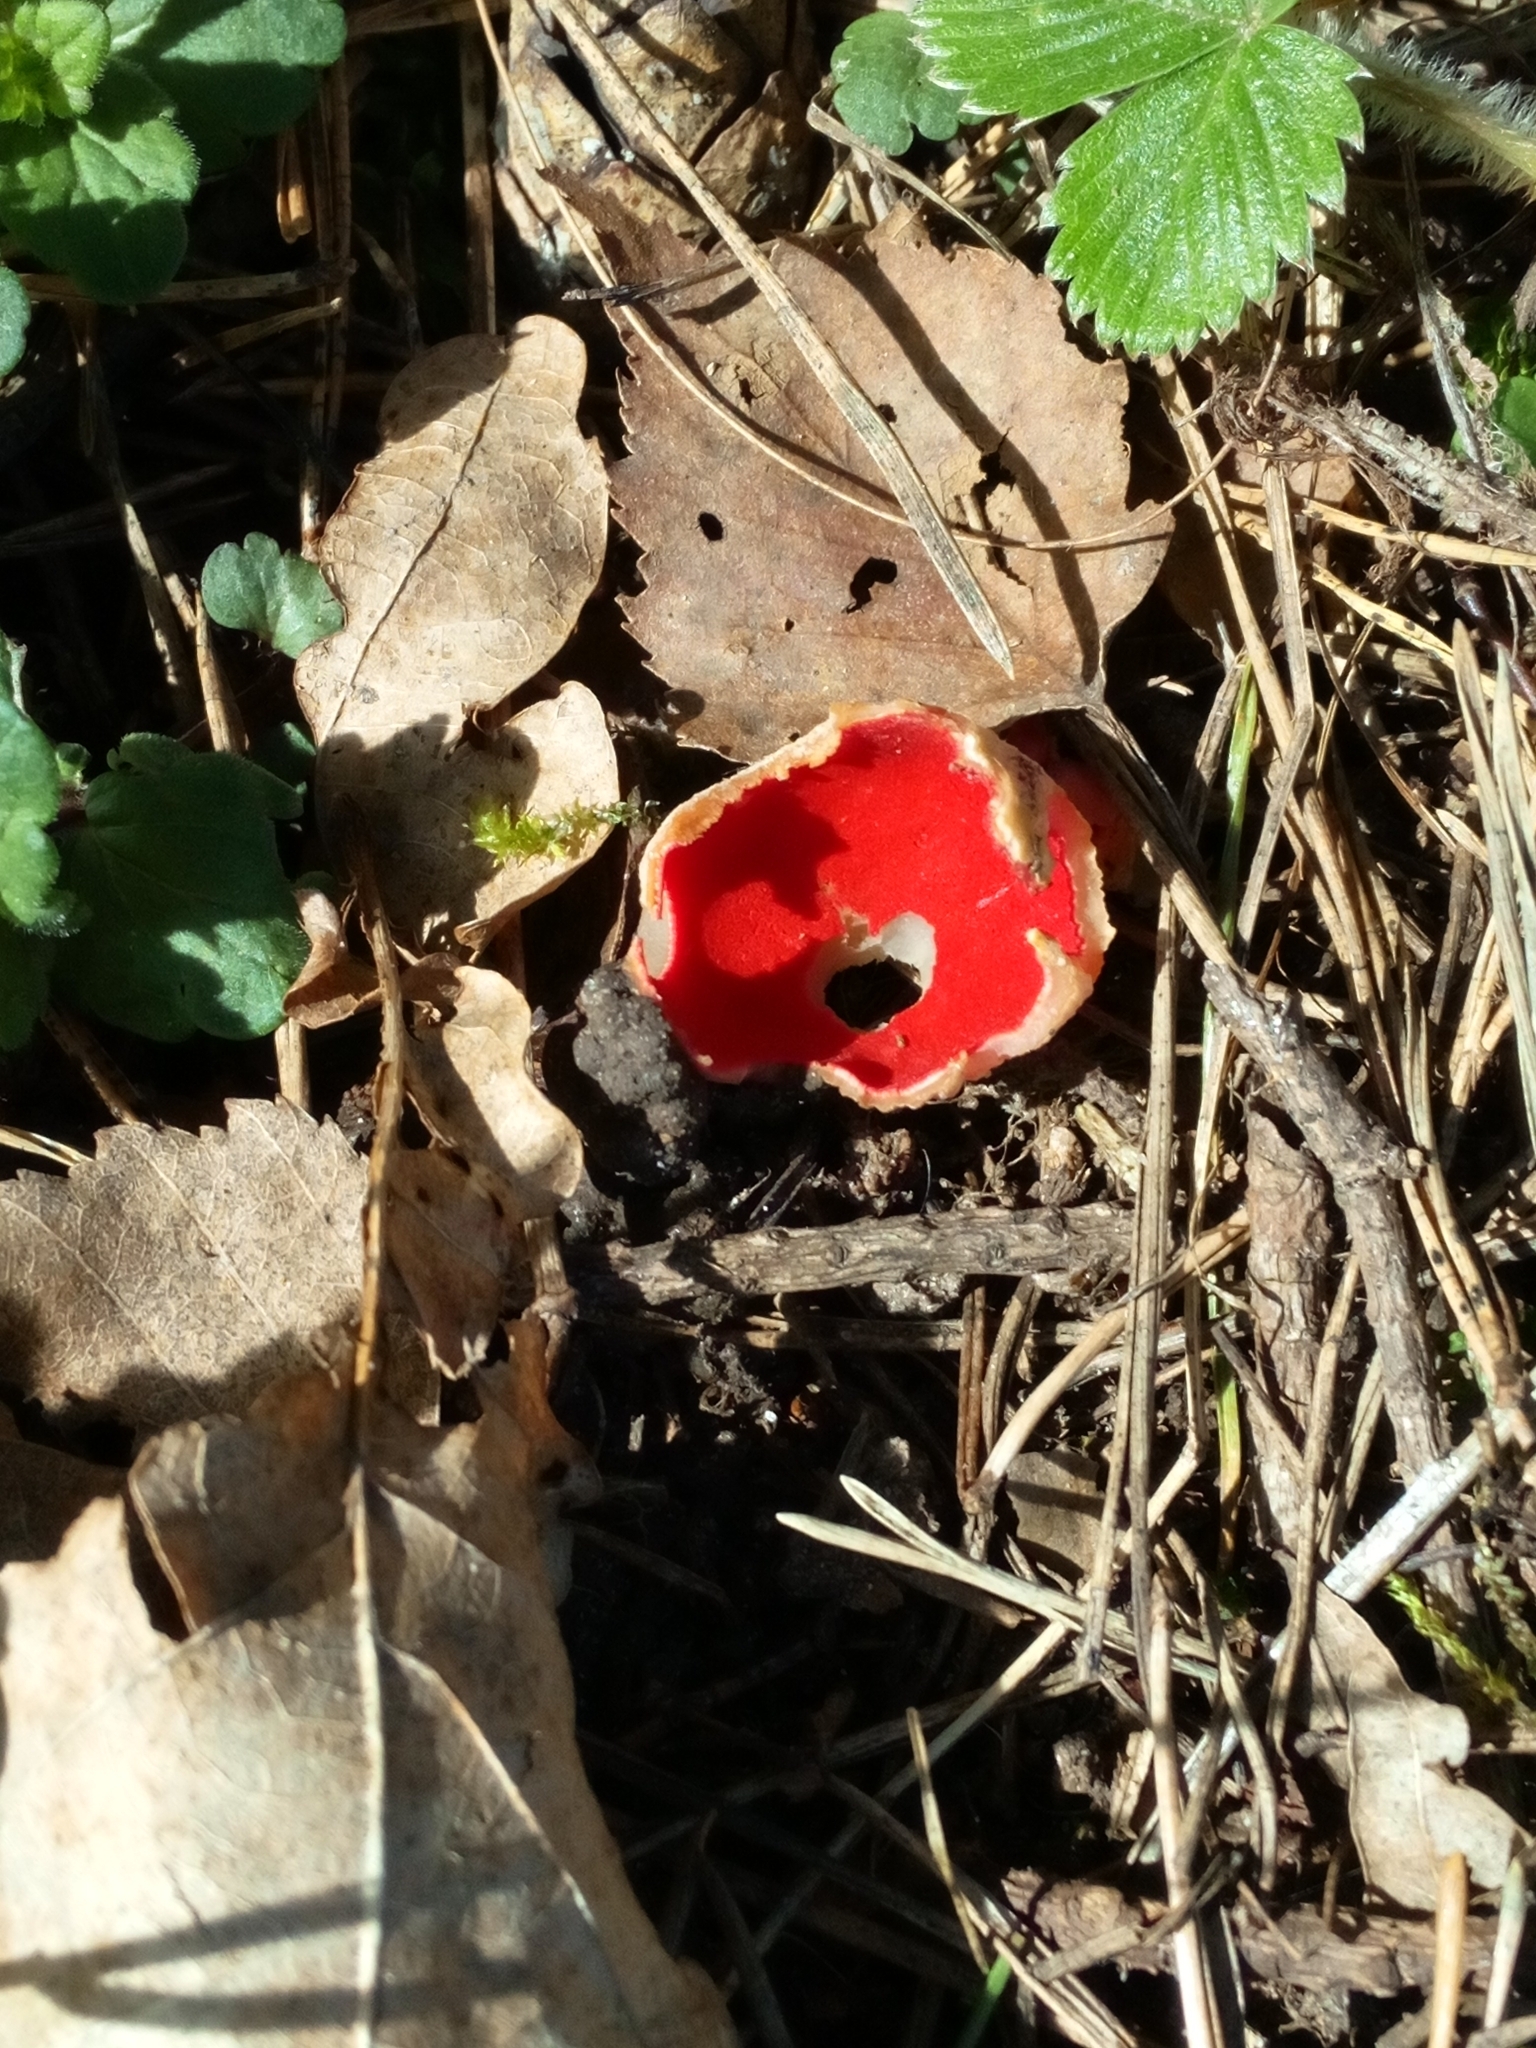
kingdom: Fungi
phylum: Ascomycota
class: Pezizomycetes
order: Pezizales
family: Sarcoscyphaceae
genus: Sarcoscypha
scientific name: Sarcoscypha
